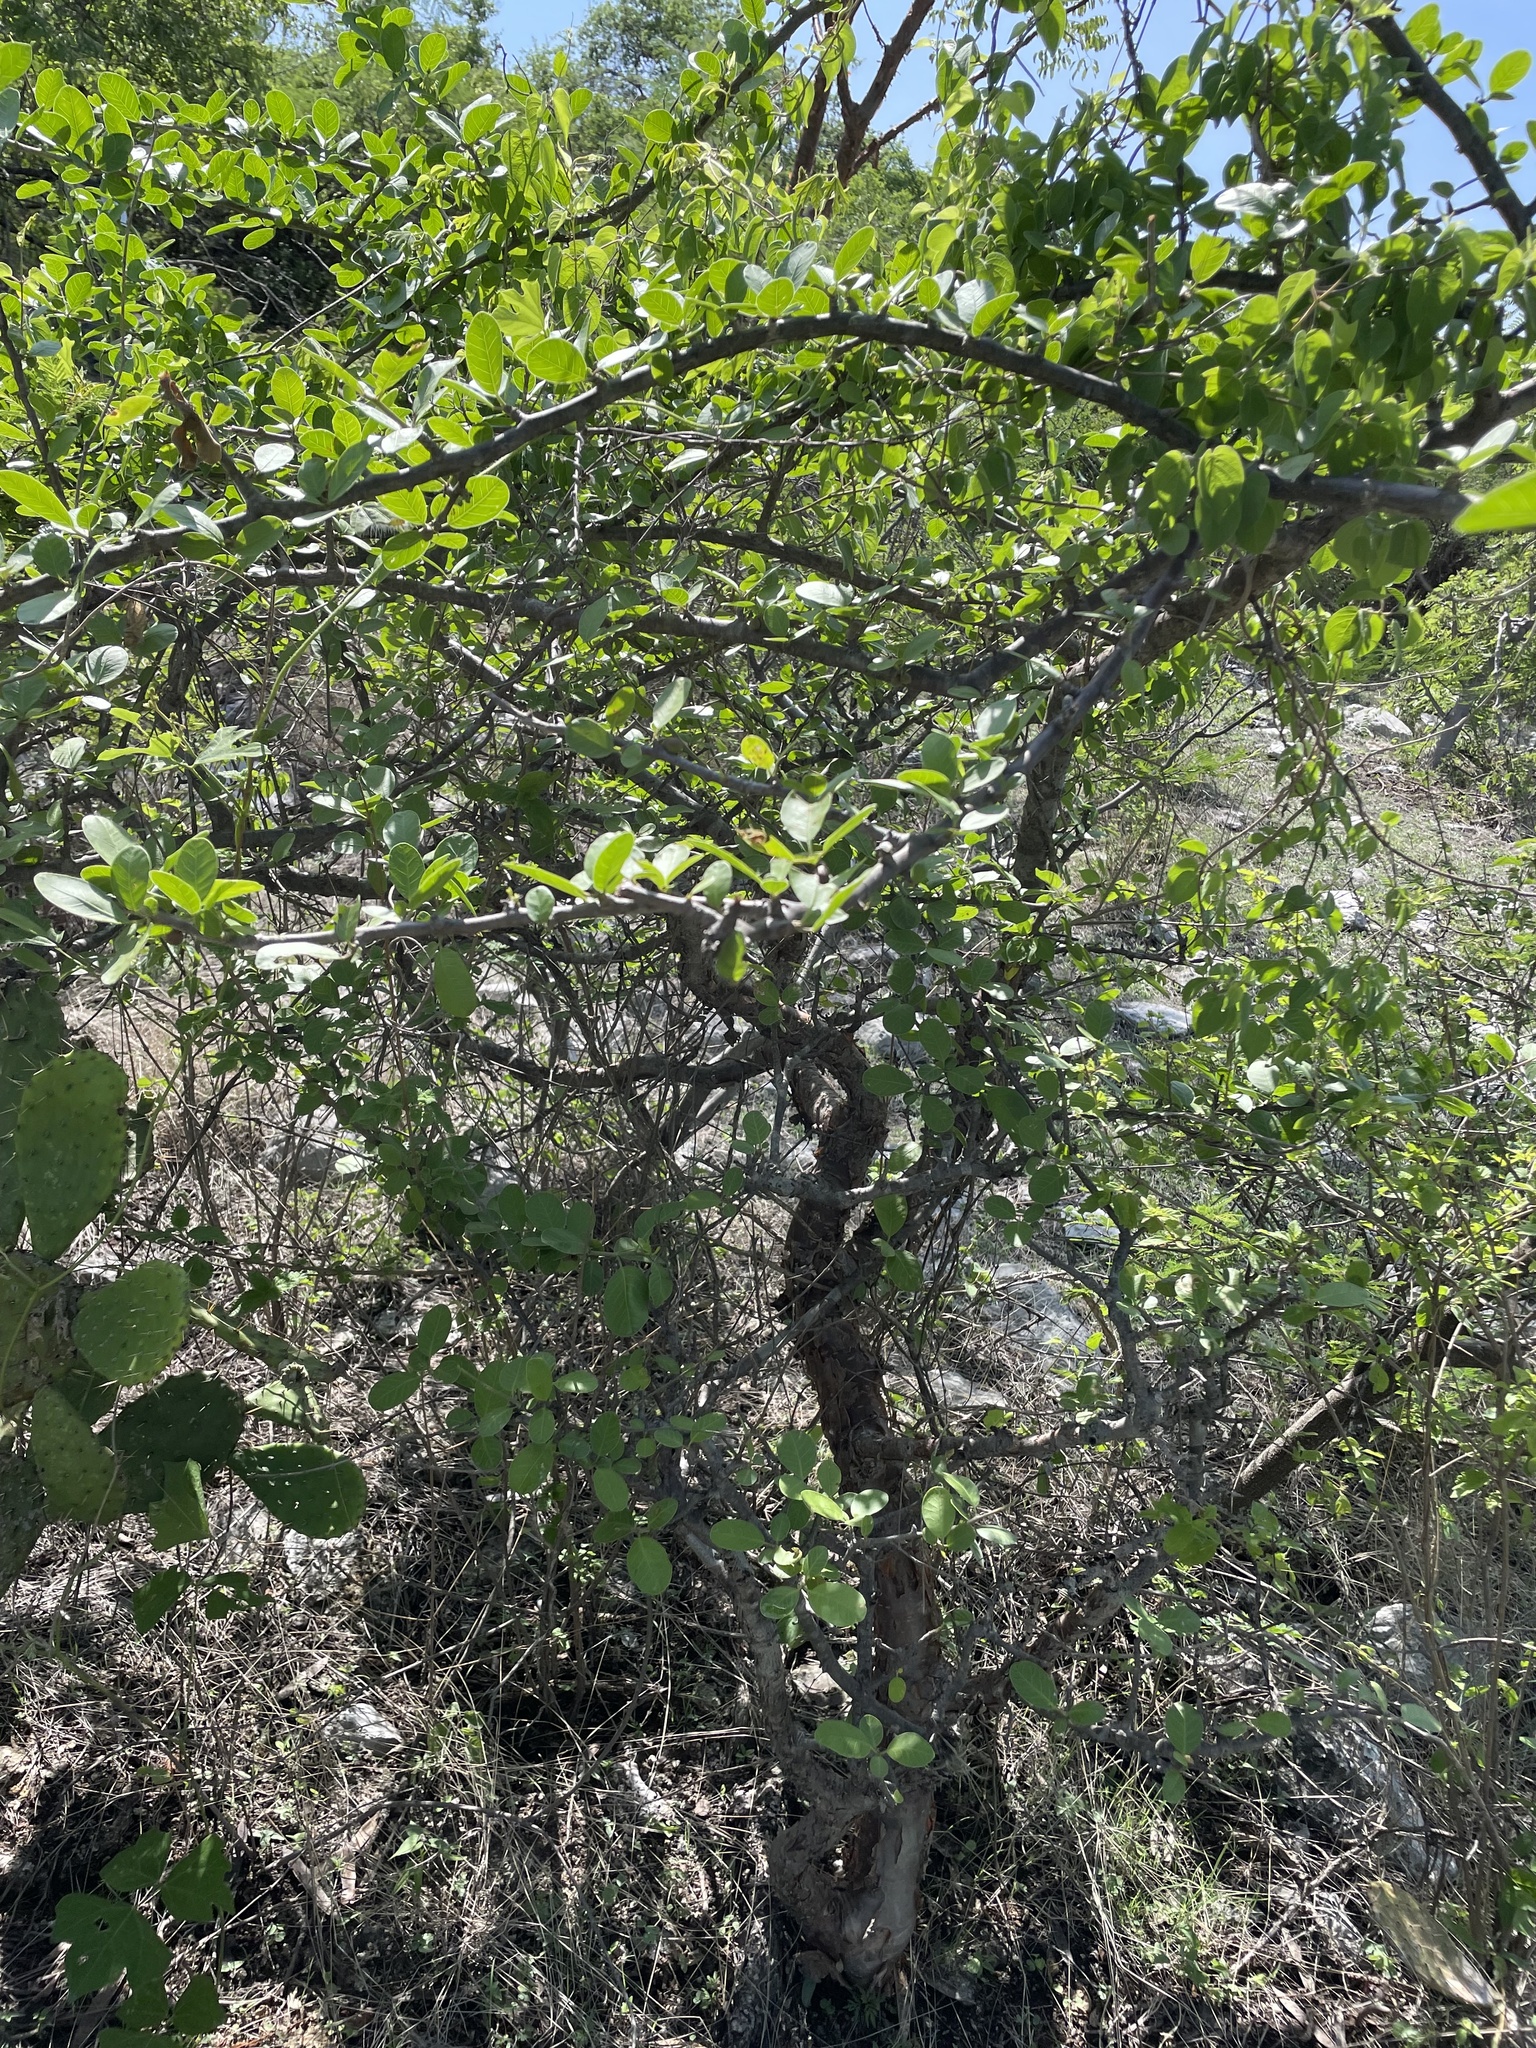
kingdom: Plantae
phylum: Tracheophyta
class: Magnoliopsida
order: Sapindales
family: Burseraceae
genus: Bursera
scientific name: Bursera schlechtendalii
